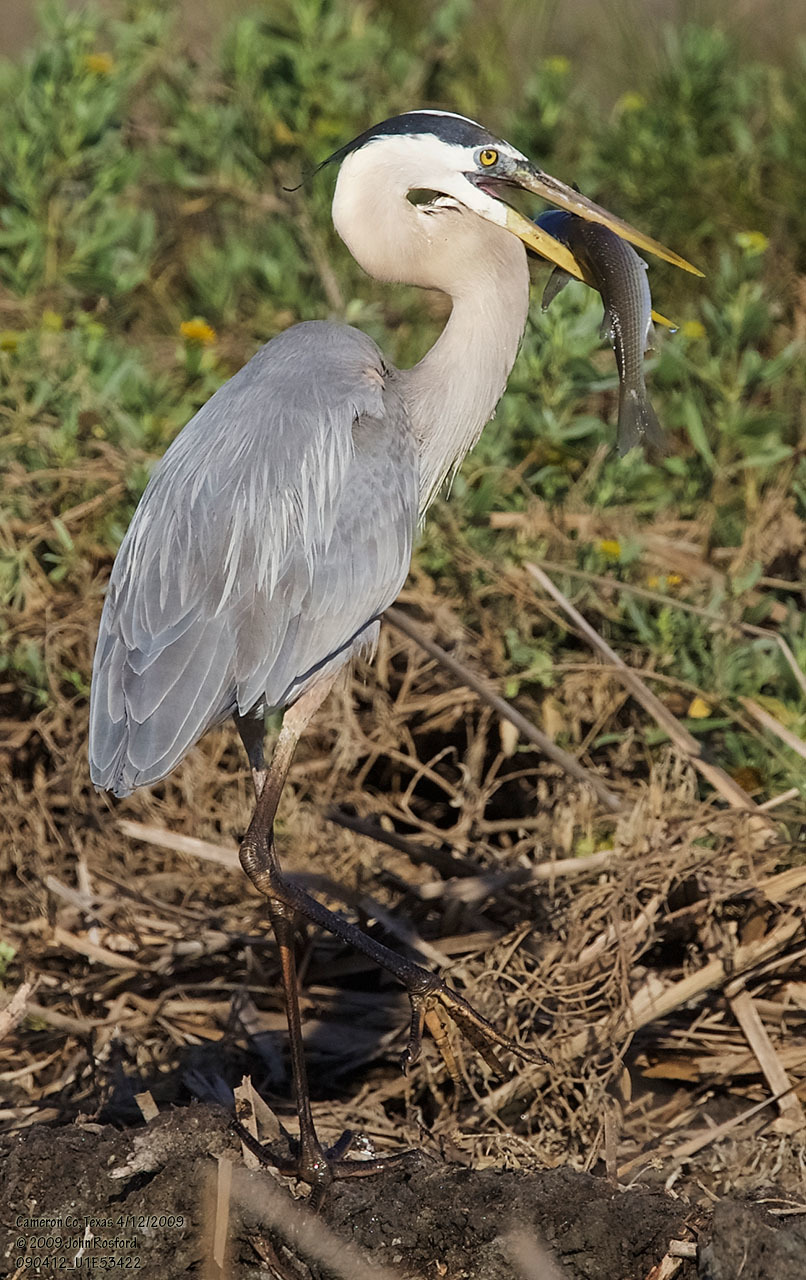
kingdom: Animalia
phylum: Chordata
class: Aves
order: Pelecaniformes
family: Ardeidae
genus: Ardea
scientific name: Ardea herodias
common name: Great blue heron
